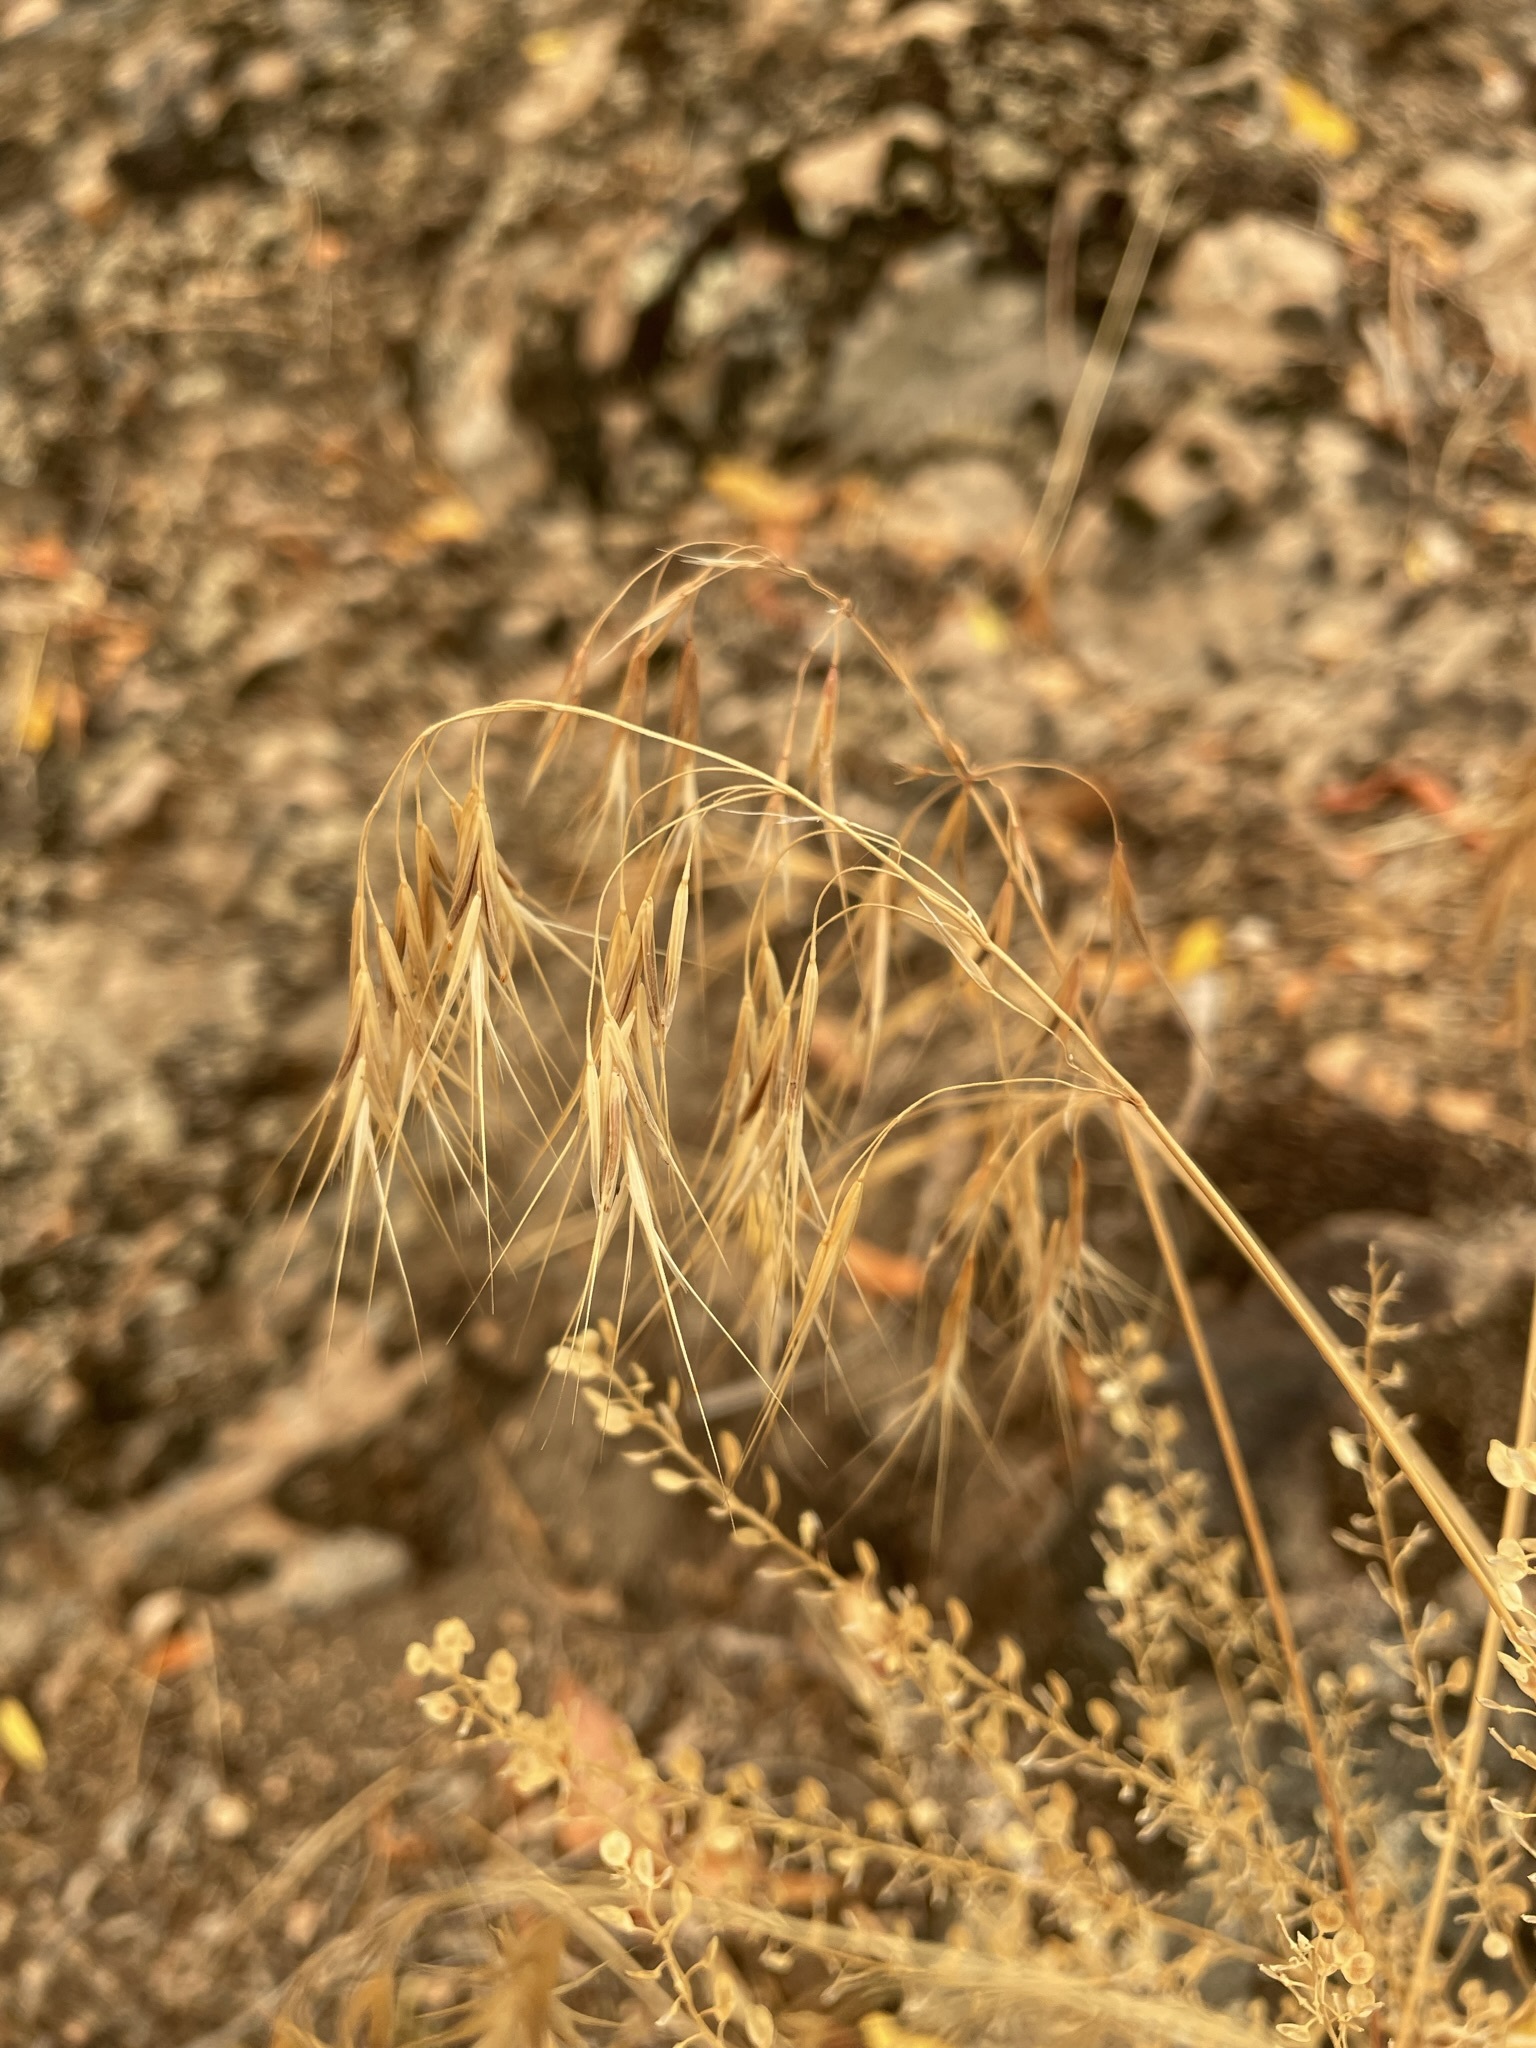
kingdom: Plantae
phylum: Tracheophyta
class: Liliopsida
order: Poales
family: Poaceae
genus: Bromus
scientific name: Bromus tectorum
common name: Cheatgrass
